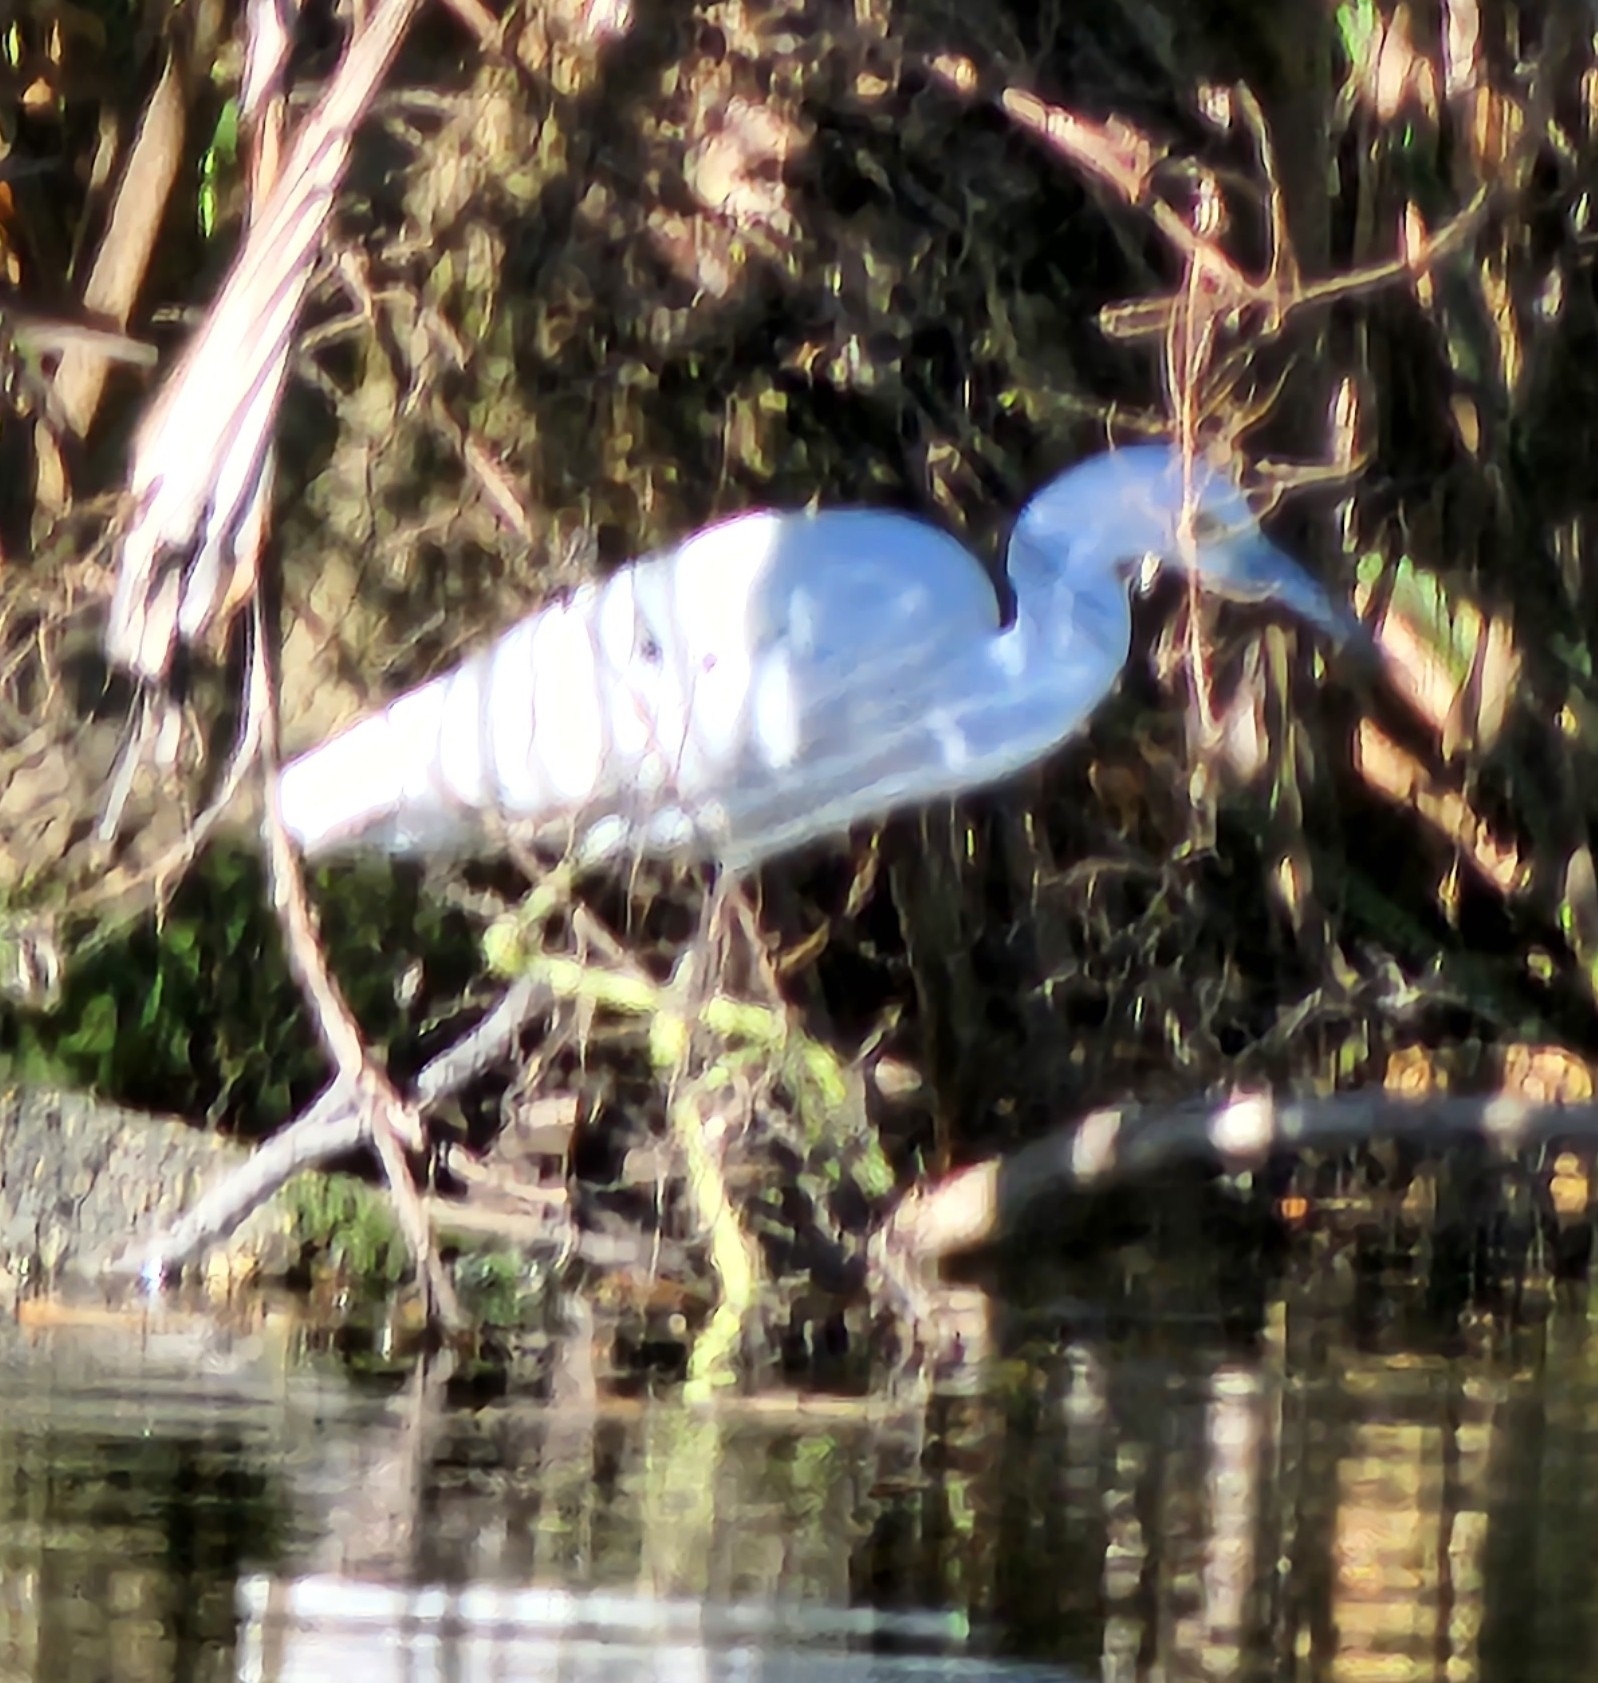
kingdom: Animalia
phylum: Chordata
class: Aves
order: Pelecaniformes
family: Ardeidae
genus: Egretta
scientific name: Egretta caerulea
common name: Little blue heron
